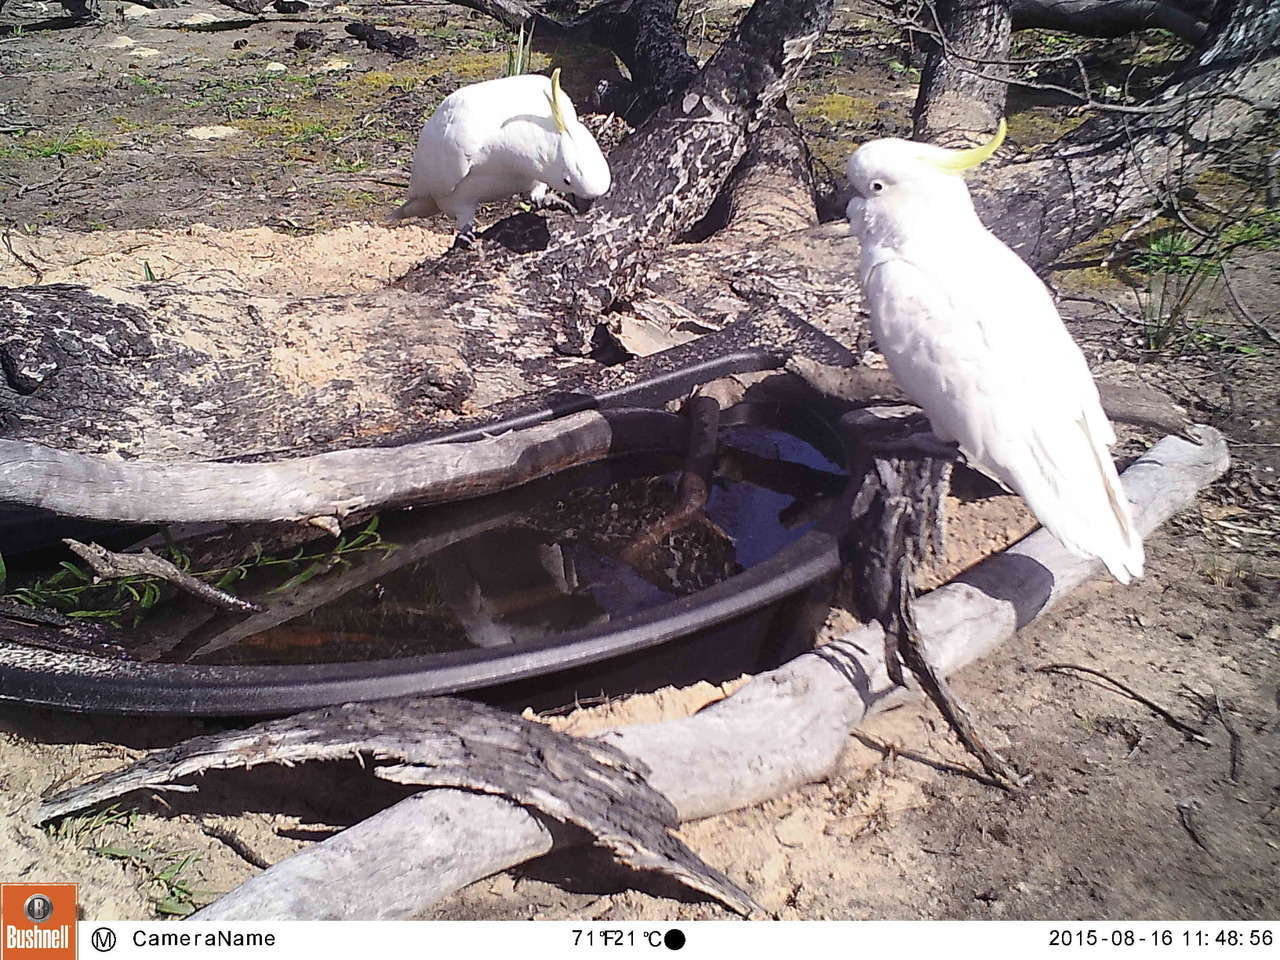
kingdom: Animalia
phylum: Chordata
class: Aves
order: Psittaciformes
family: Psittacidae
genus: Cacatua
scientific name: Cacatua galerita
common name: Sulphur-crested cockatoo
